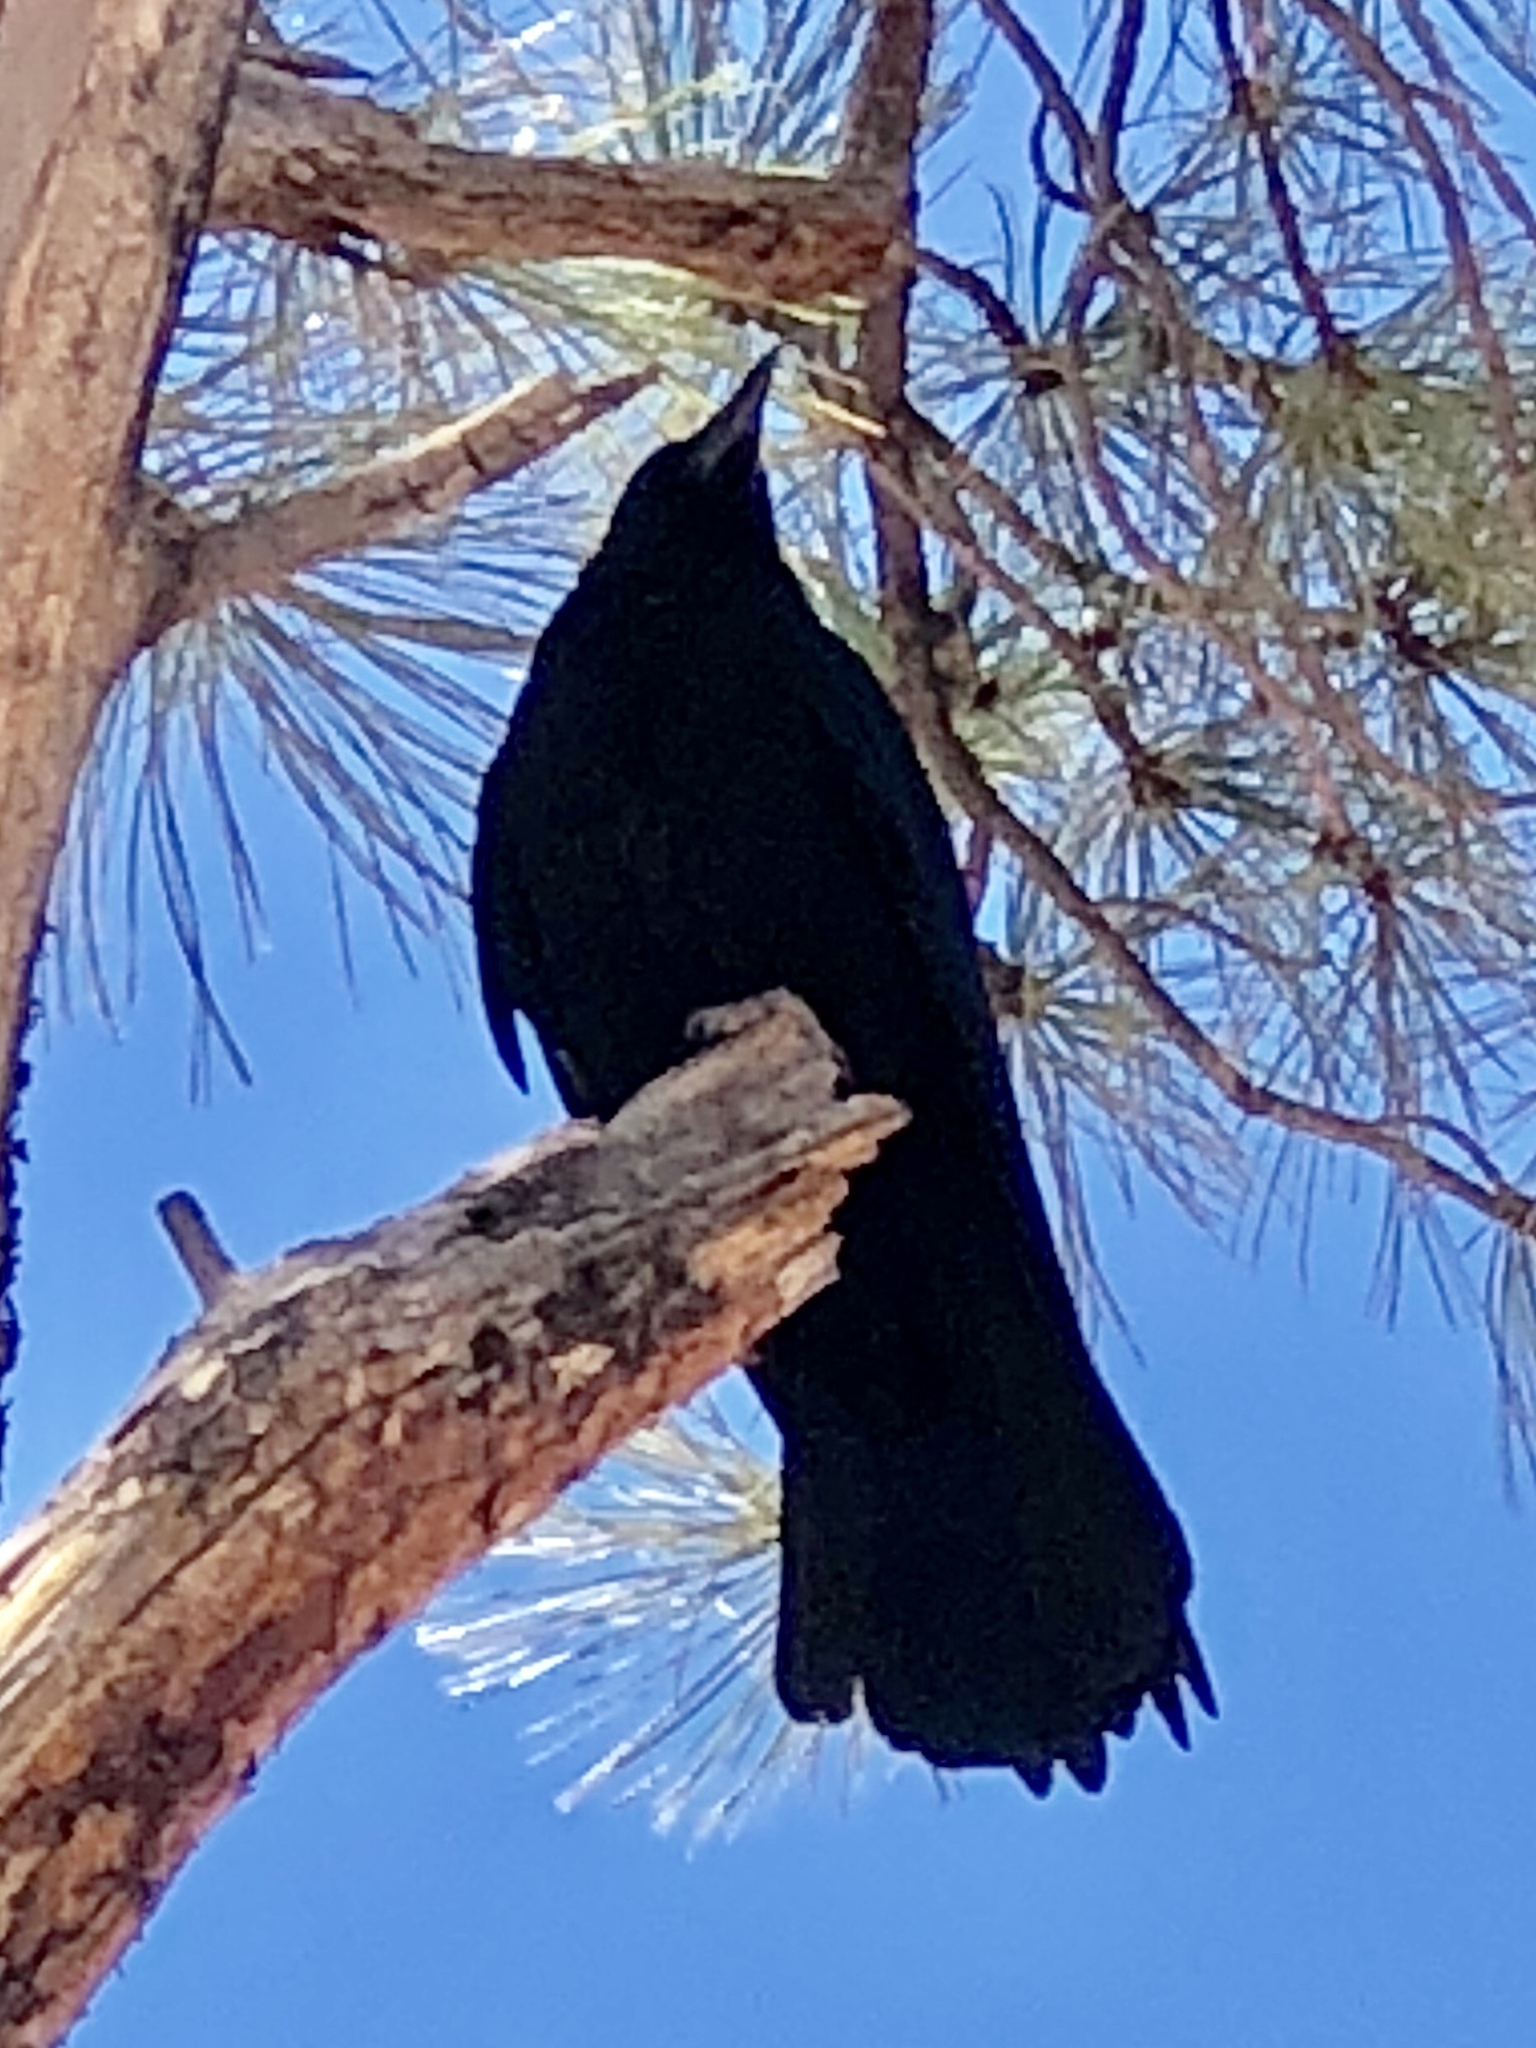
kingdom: Animalia
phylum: Chordata
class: Aves
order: Passeriformes
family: Corvidae
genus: Corvus
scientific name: Corvus brachyrhynchos
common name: American crow
